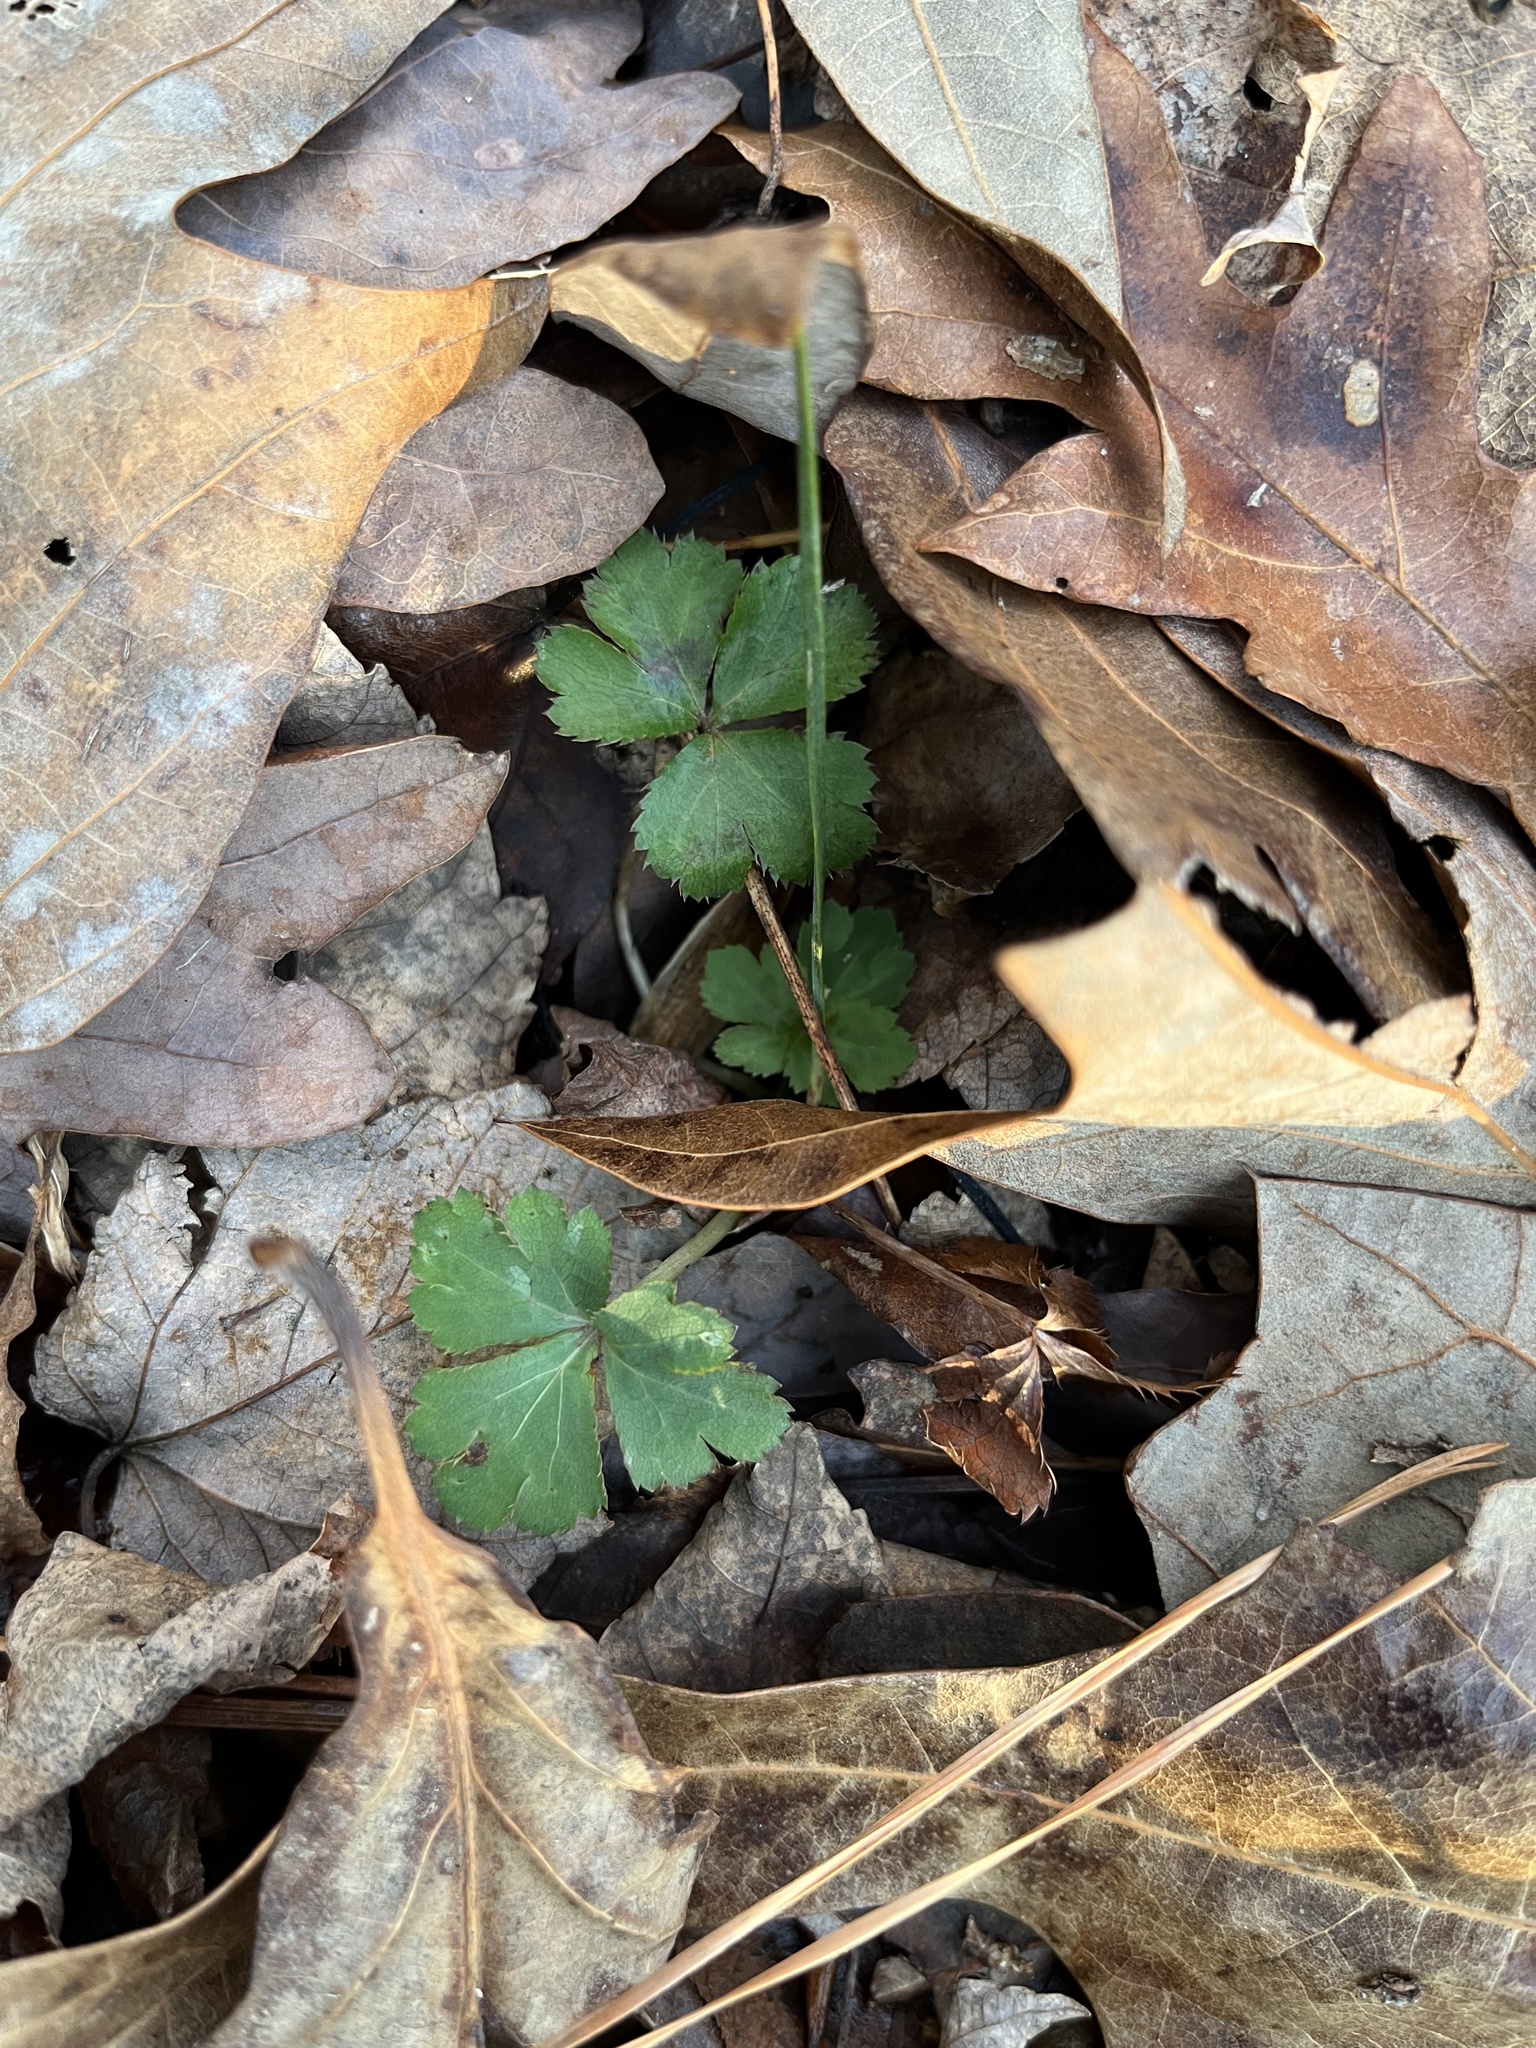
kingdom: Plantae
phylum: Tracheophyta
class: Magnoliopsida
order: Apiales
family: Apiaceae
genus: Sanicula
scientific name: Sanicula canadensis
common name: Canada sanicle
